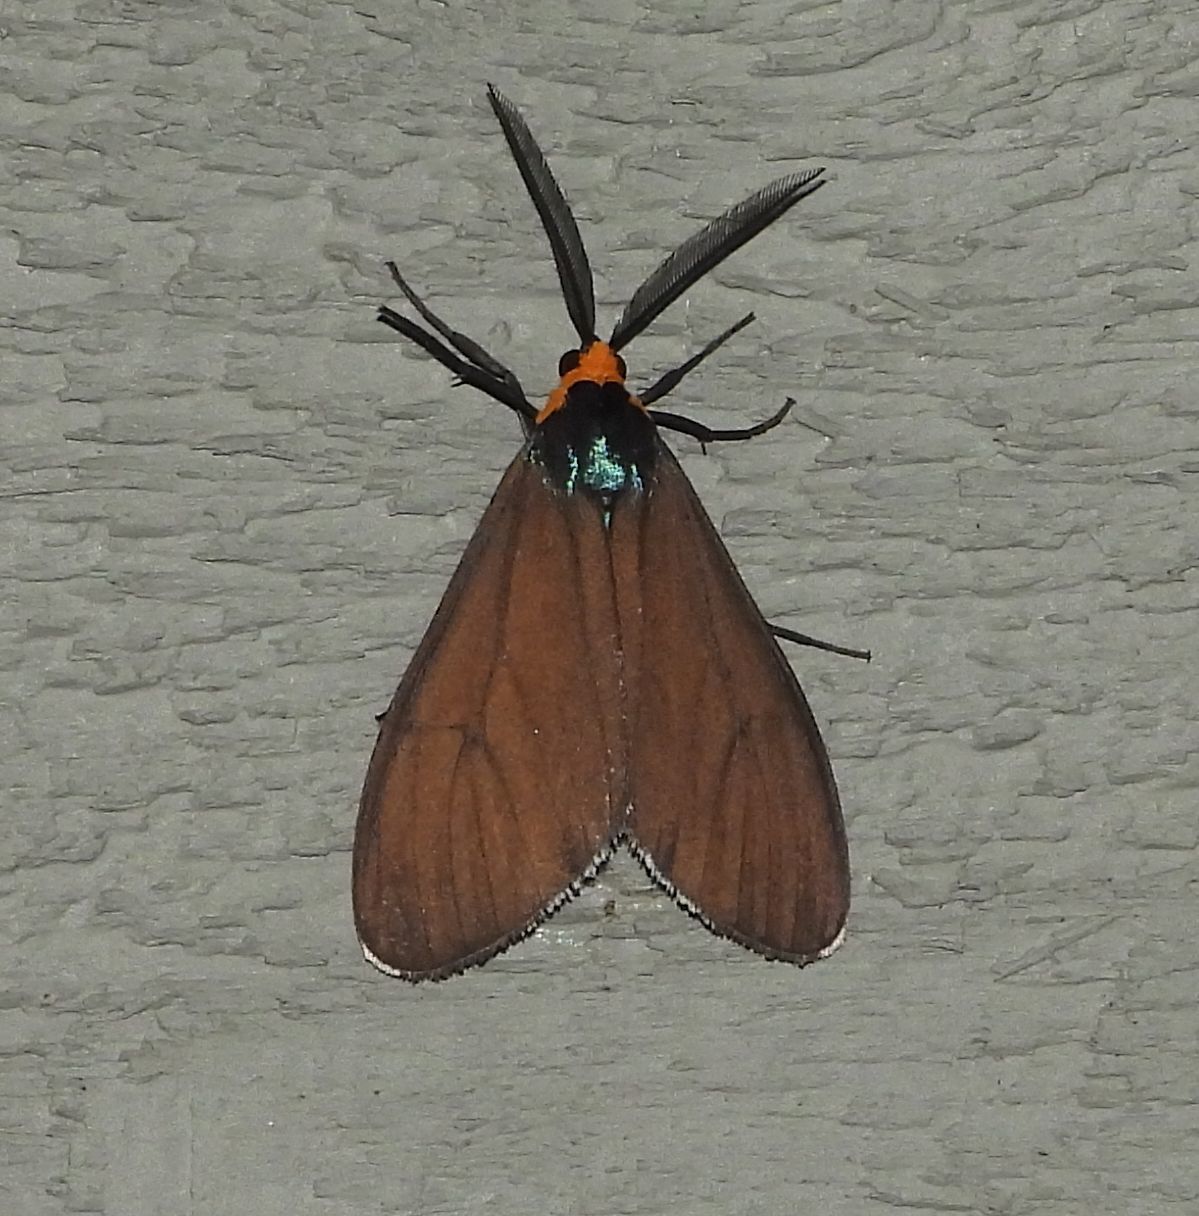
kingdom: Animalia
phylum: Arthropoda
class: Insecta
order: Lepidoptera
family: Erebidae
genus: Ctenucha
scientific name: Ctenucha virginica
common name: Virginia ctenucha moth
